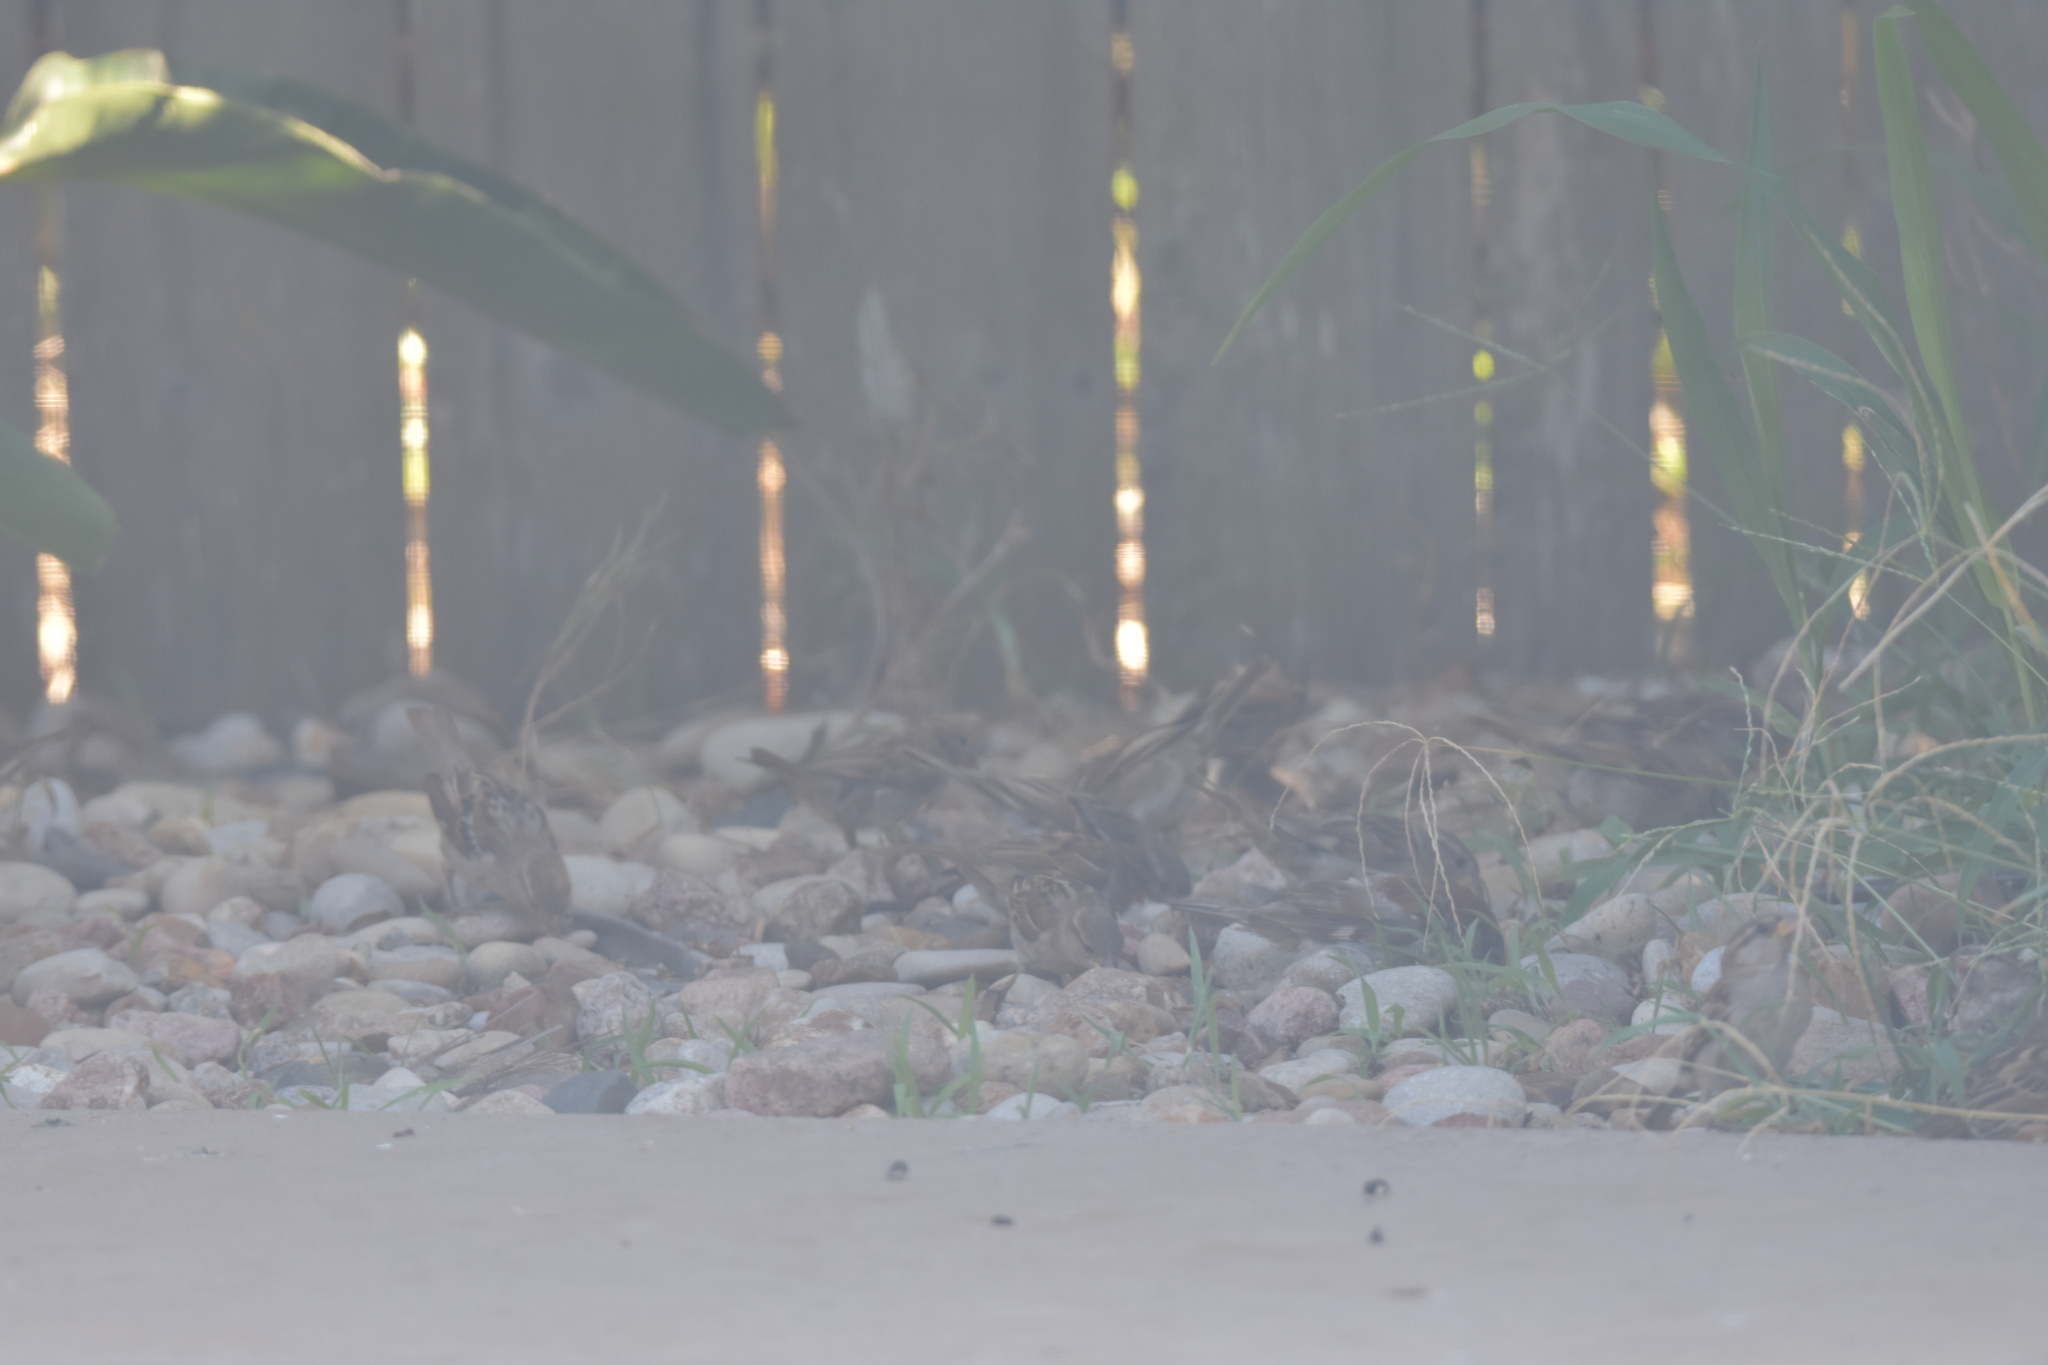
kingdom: Animalia
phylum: Chordata
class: Aves
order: Passeriformes
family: Passeridae
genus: Passer
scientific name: Passer domesticus
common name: House sparrow
